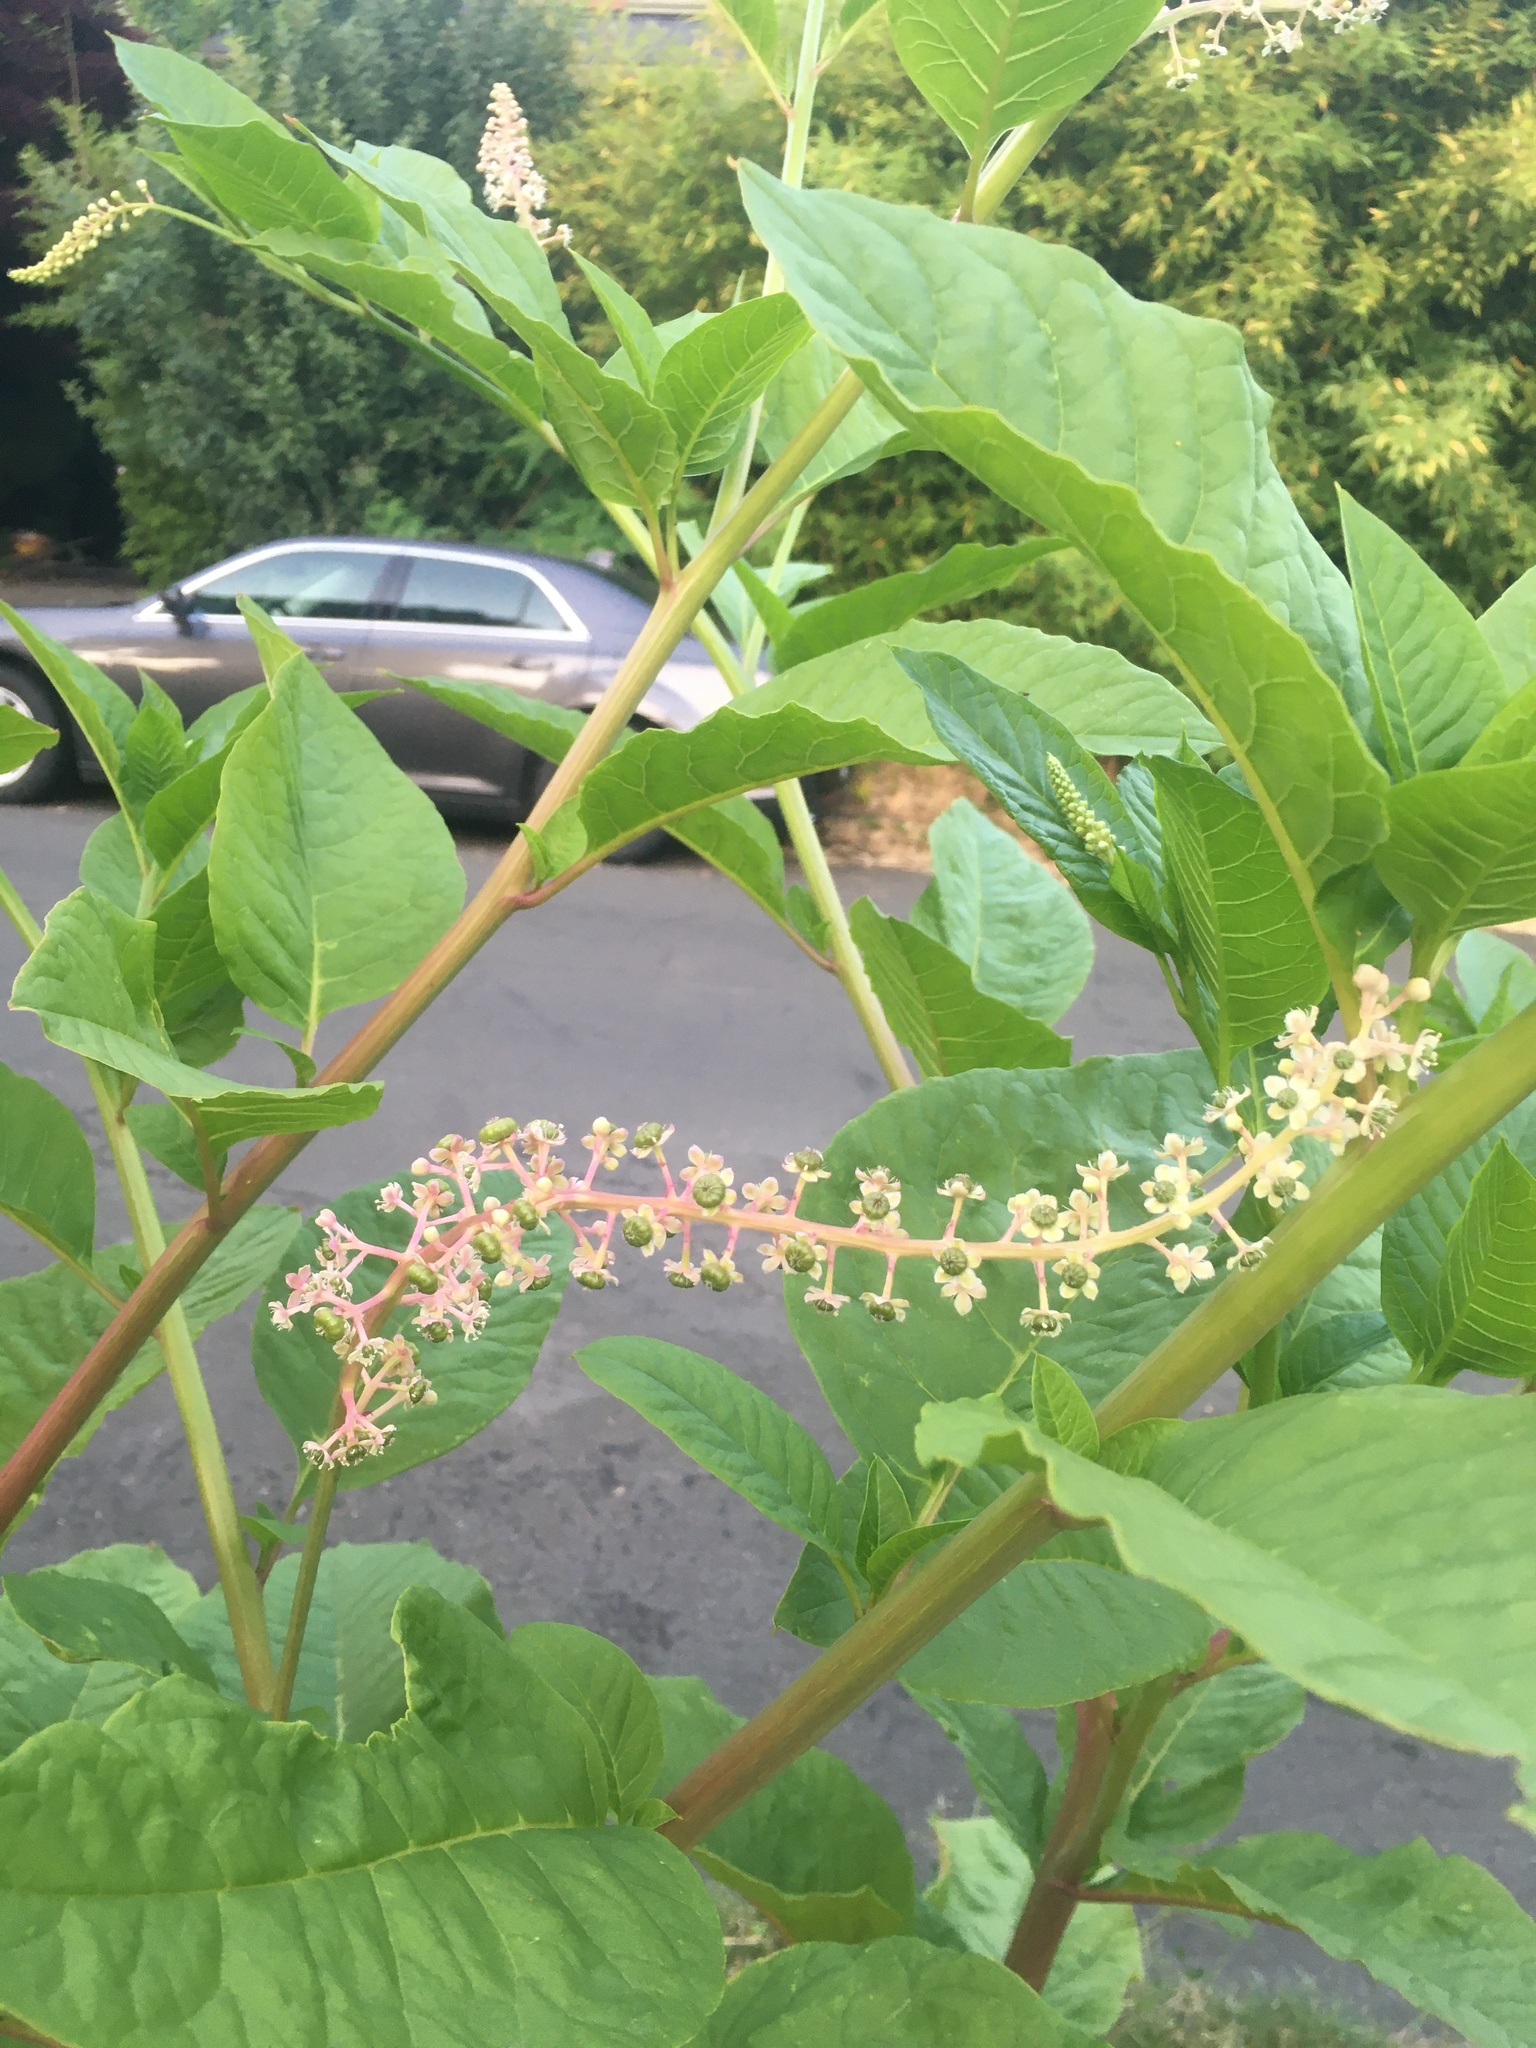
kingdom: Plantae
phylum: Tracheophyta
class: Magnoliopsida
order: Caryophyllales
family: Phytolaccaceae
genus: Phytolacca
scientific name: Phytolacca americana
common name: American pokeweed
